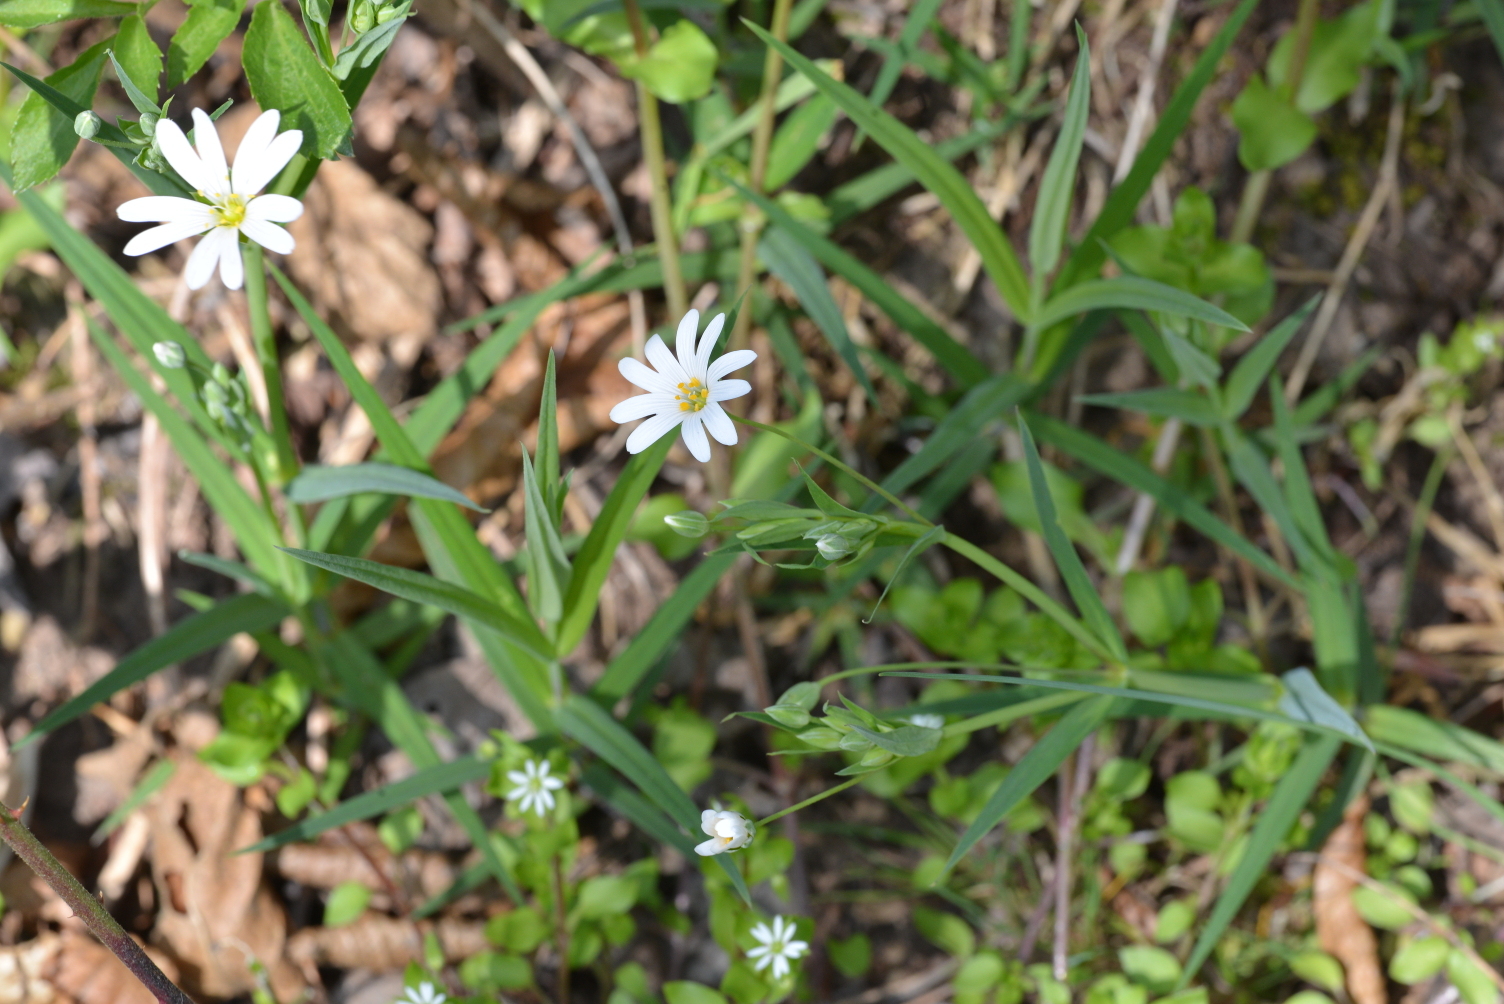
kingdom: Plantae
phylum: Tracheophyta
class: Magnoliopsida
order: Caryophyllales
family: Caryophyllaceae
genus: Rabelera
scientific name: Rabelera holostea
